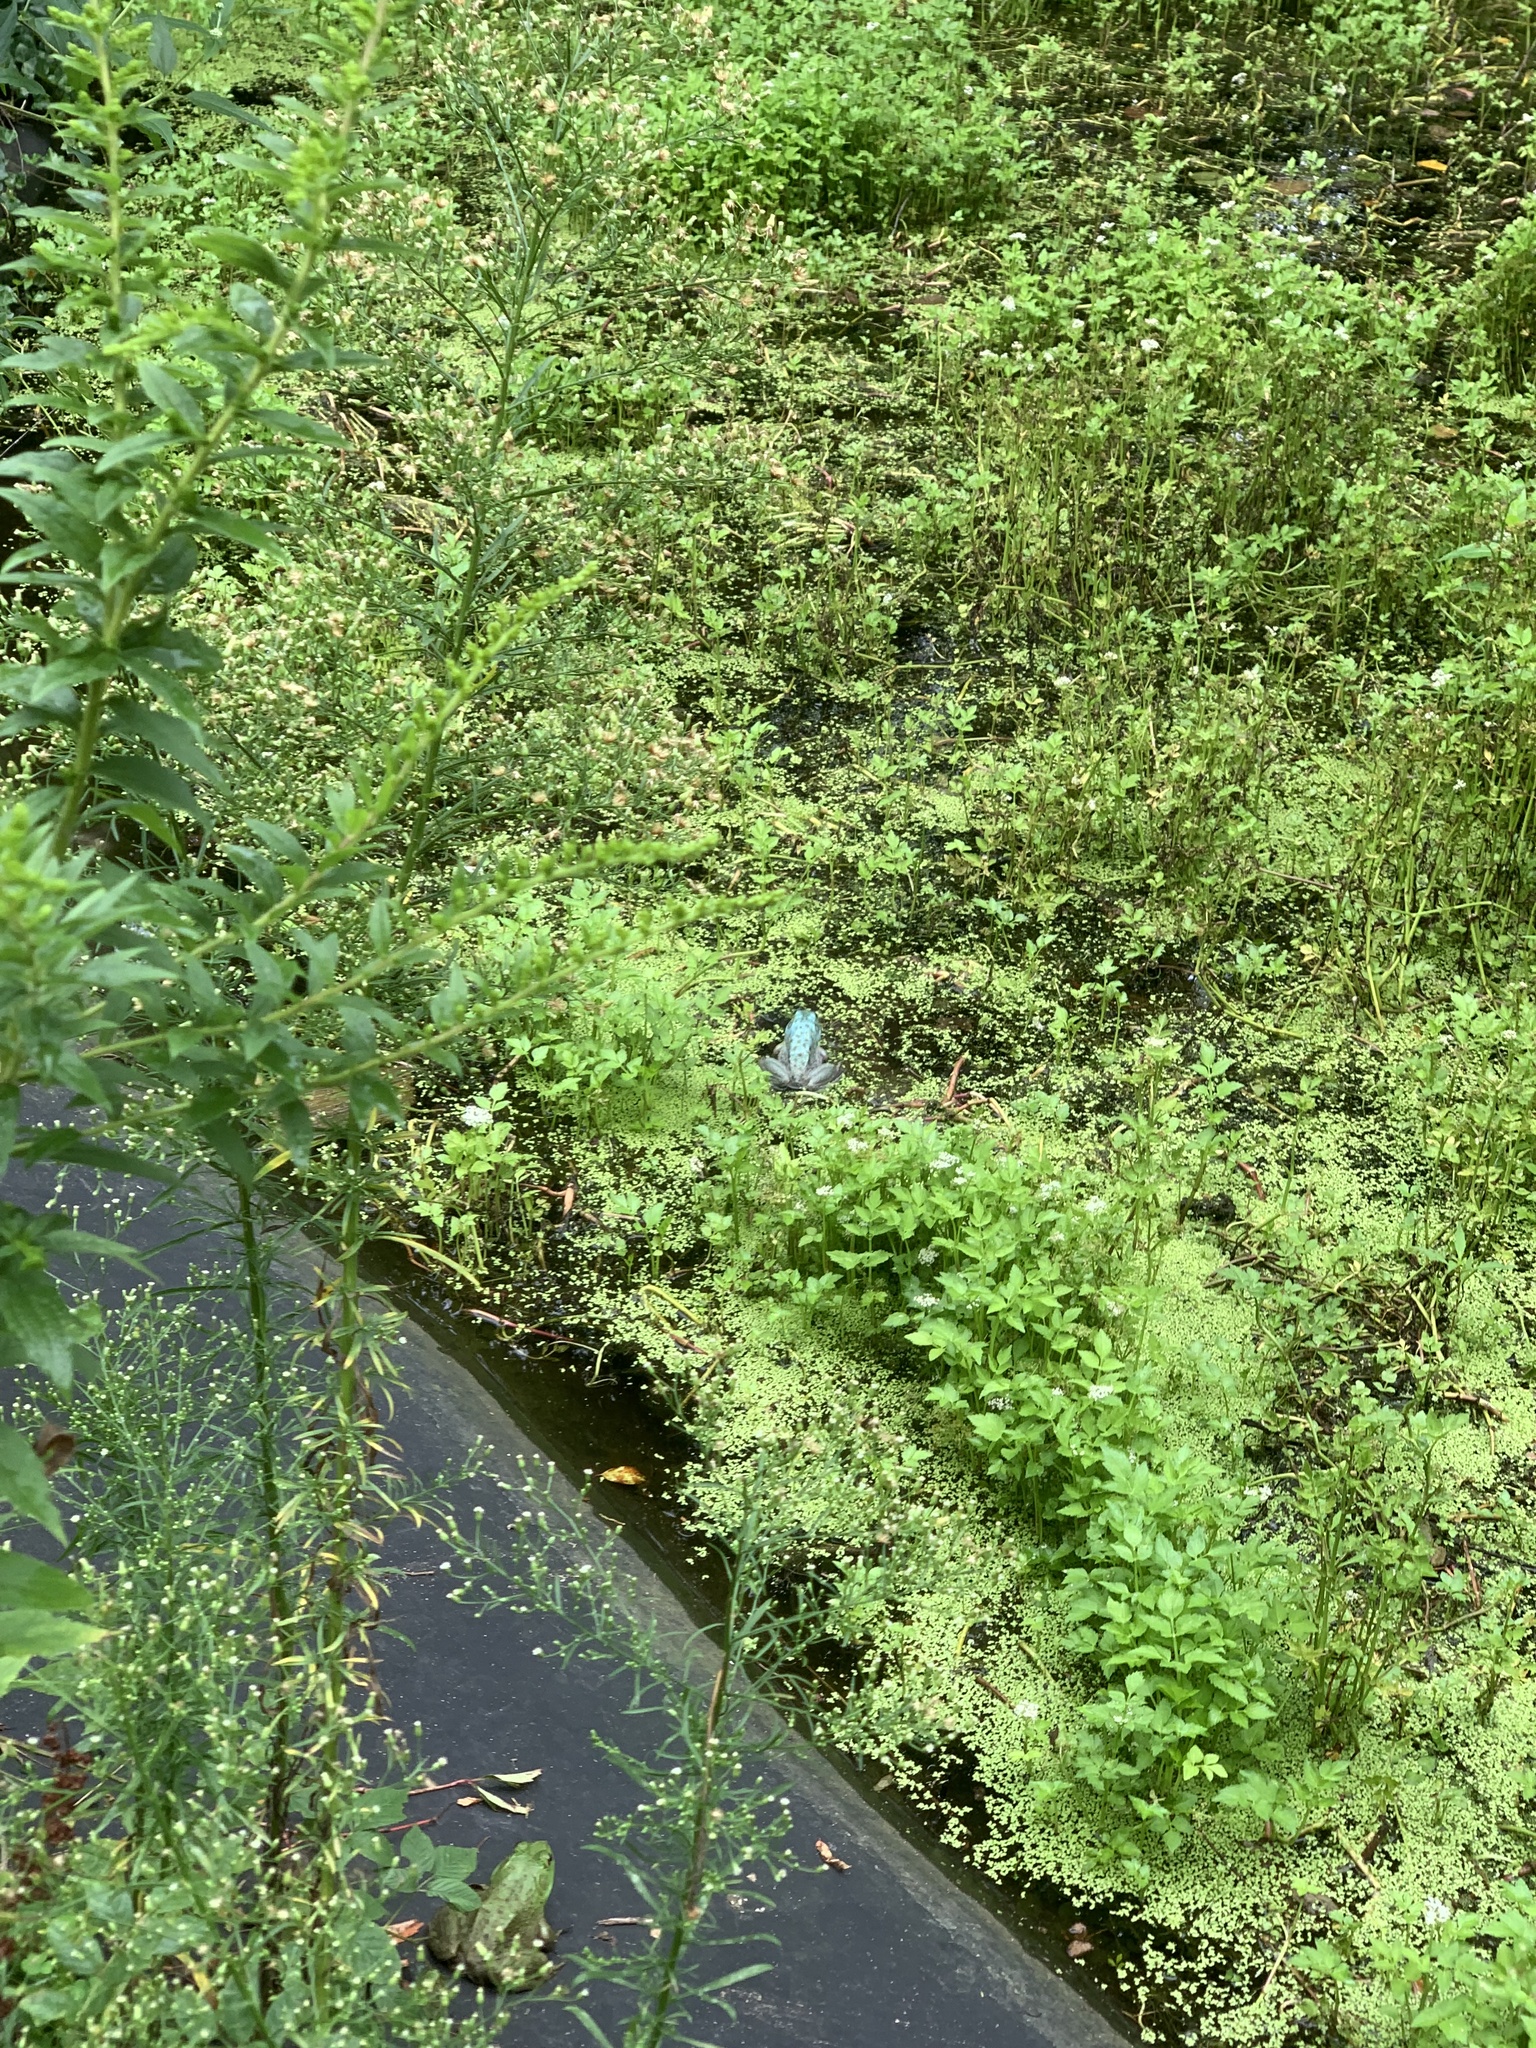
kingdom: Animalia
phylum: Chordata
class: Amphibia
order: Anura
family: Ranidae
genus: Lithobates
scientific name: Lithobates catesbeianus
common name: American bullfrog
